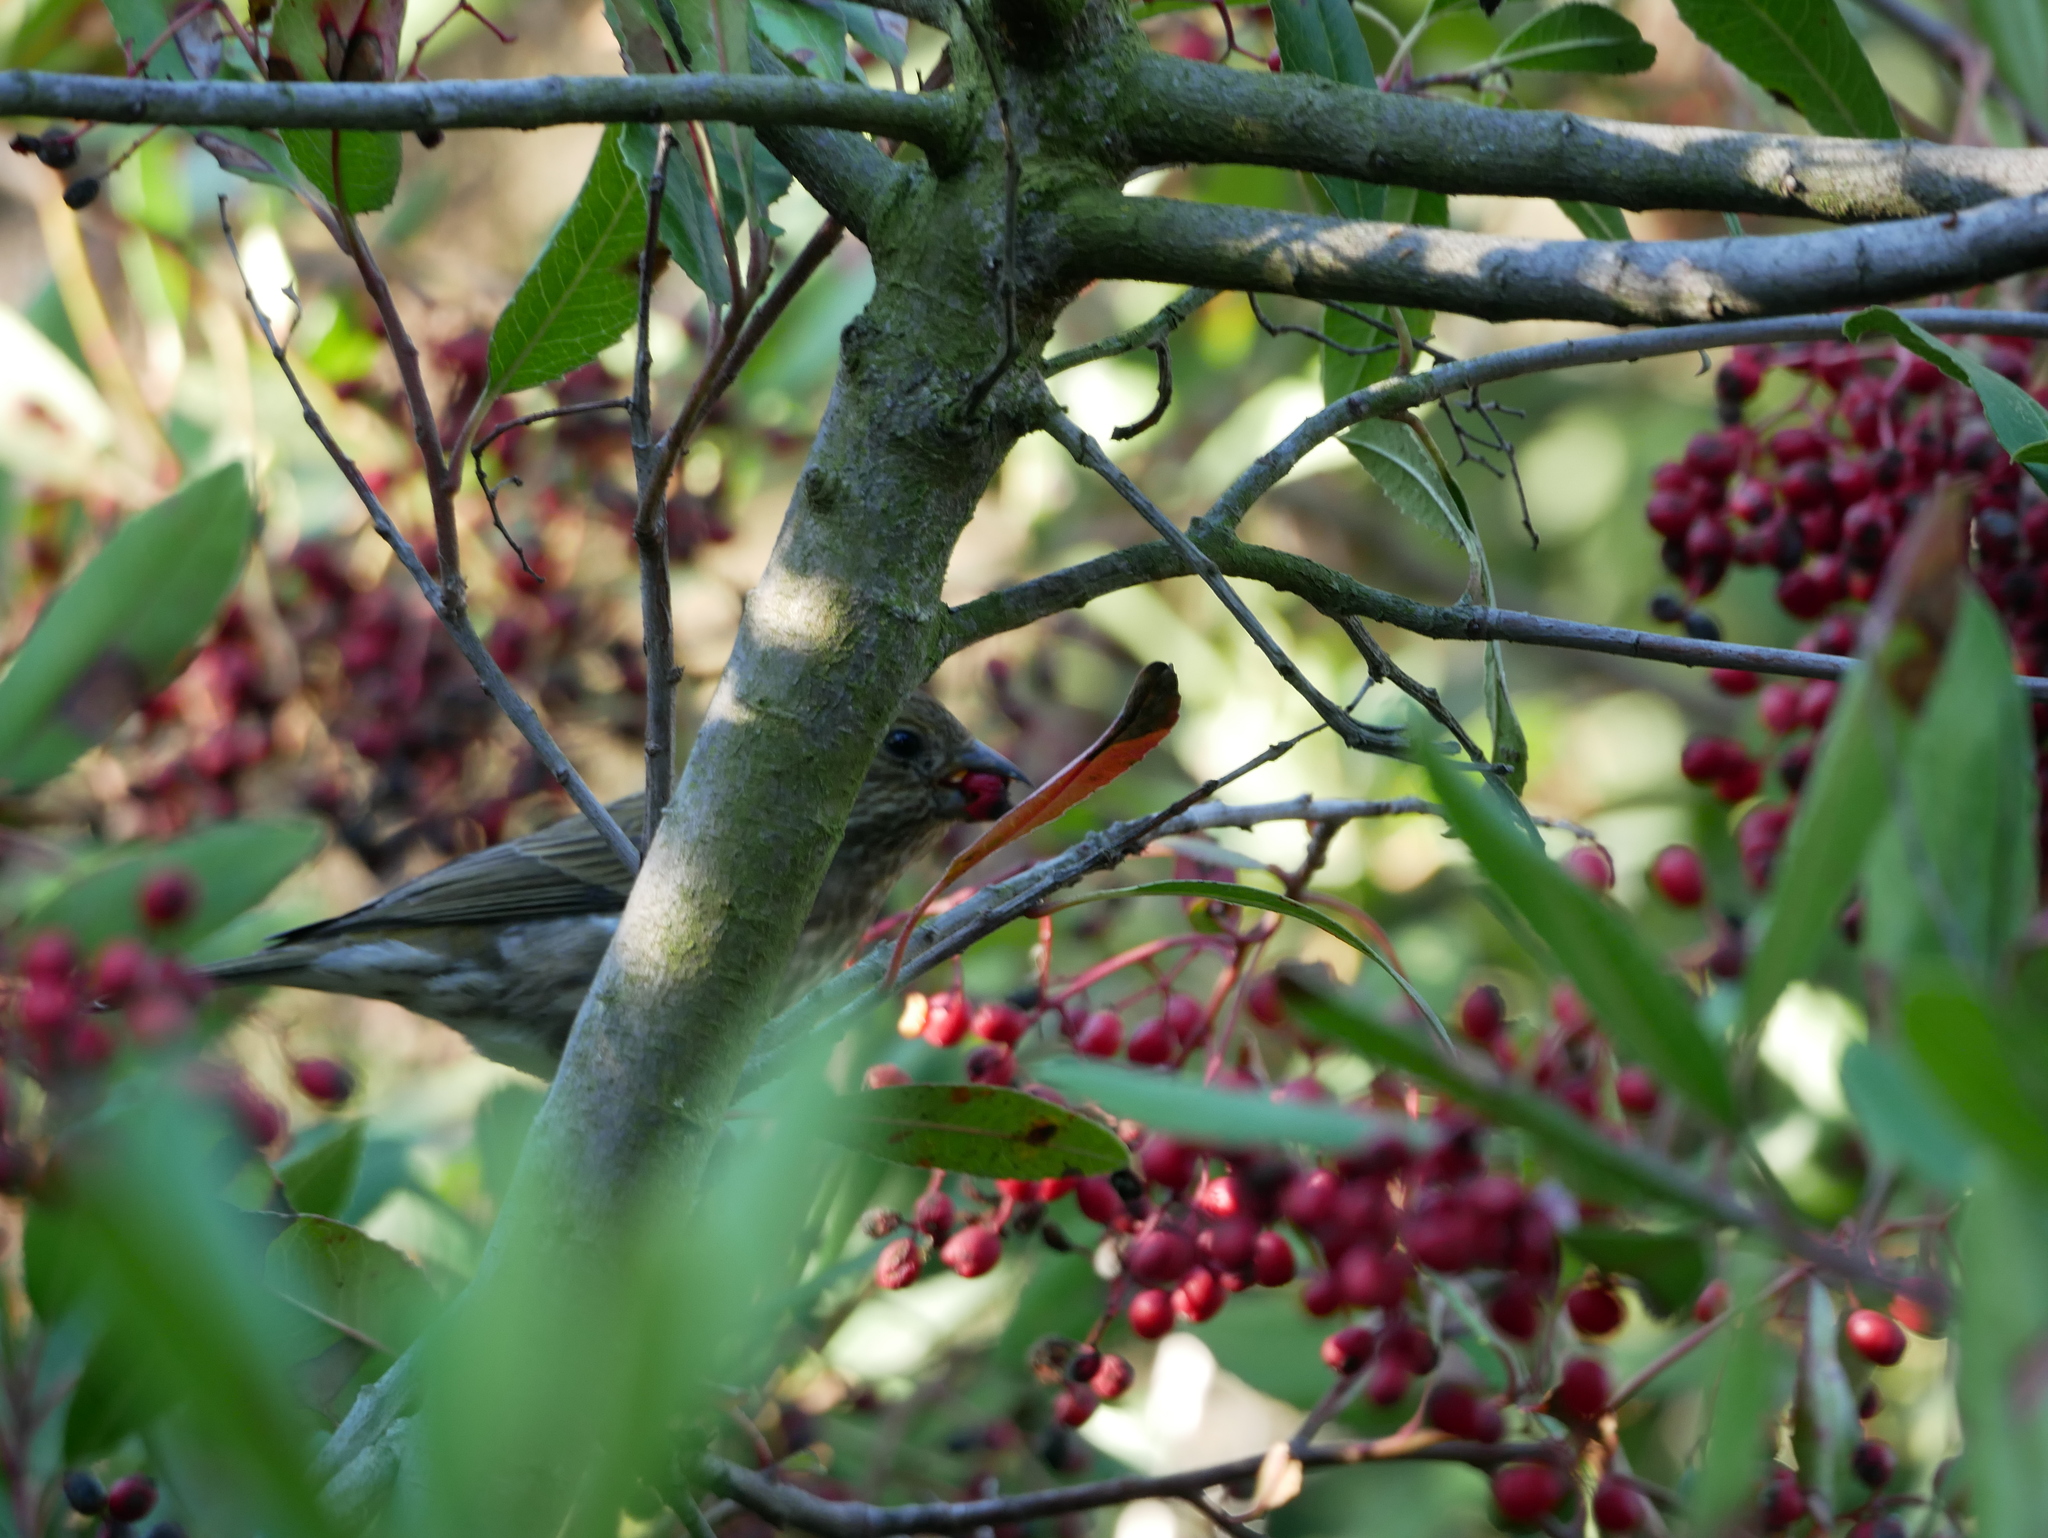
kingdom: Plantae
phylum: Tracheophyta
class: Magnoliopsida
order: Rosales
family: Rosaceae
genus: Heteromeles
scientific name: Heteromeles arbutifolia
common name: California-holly
